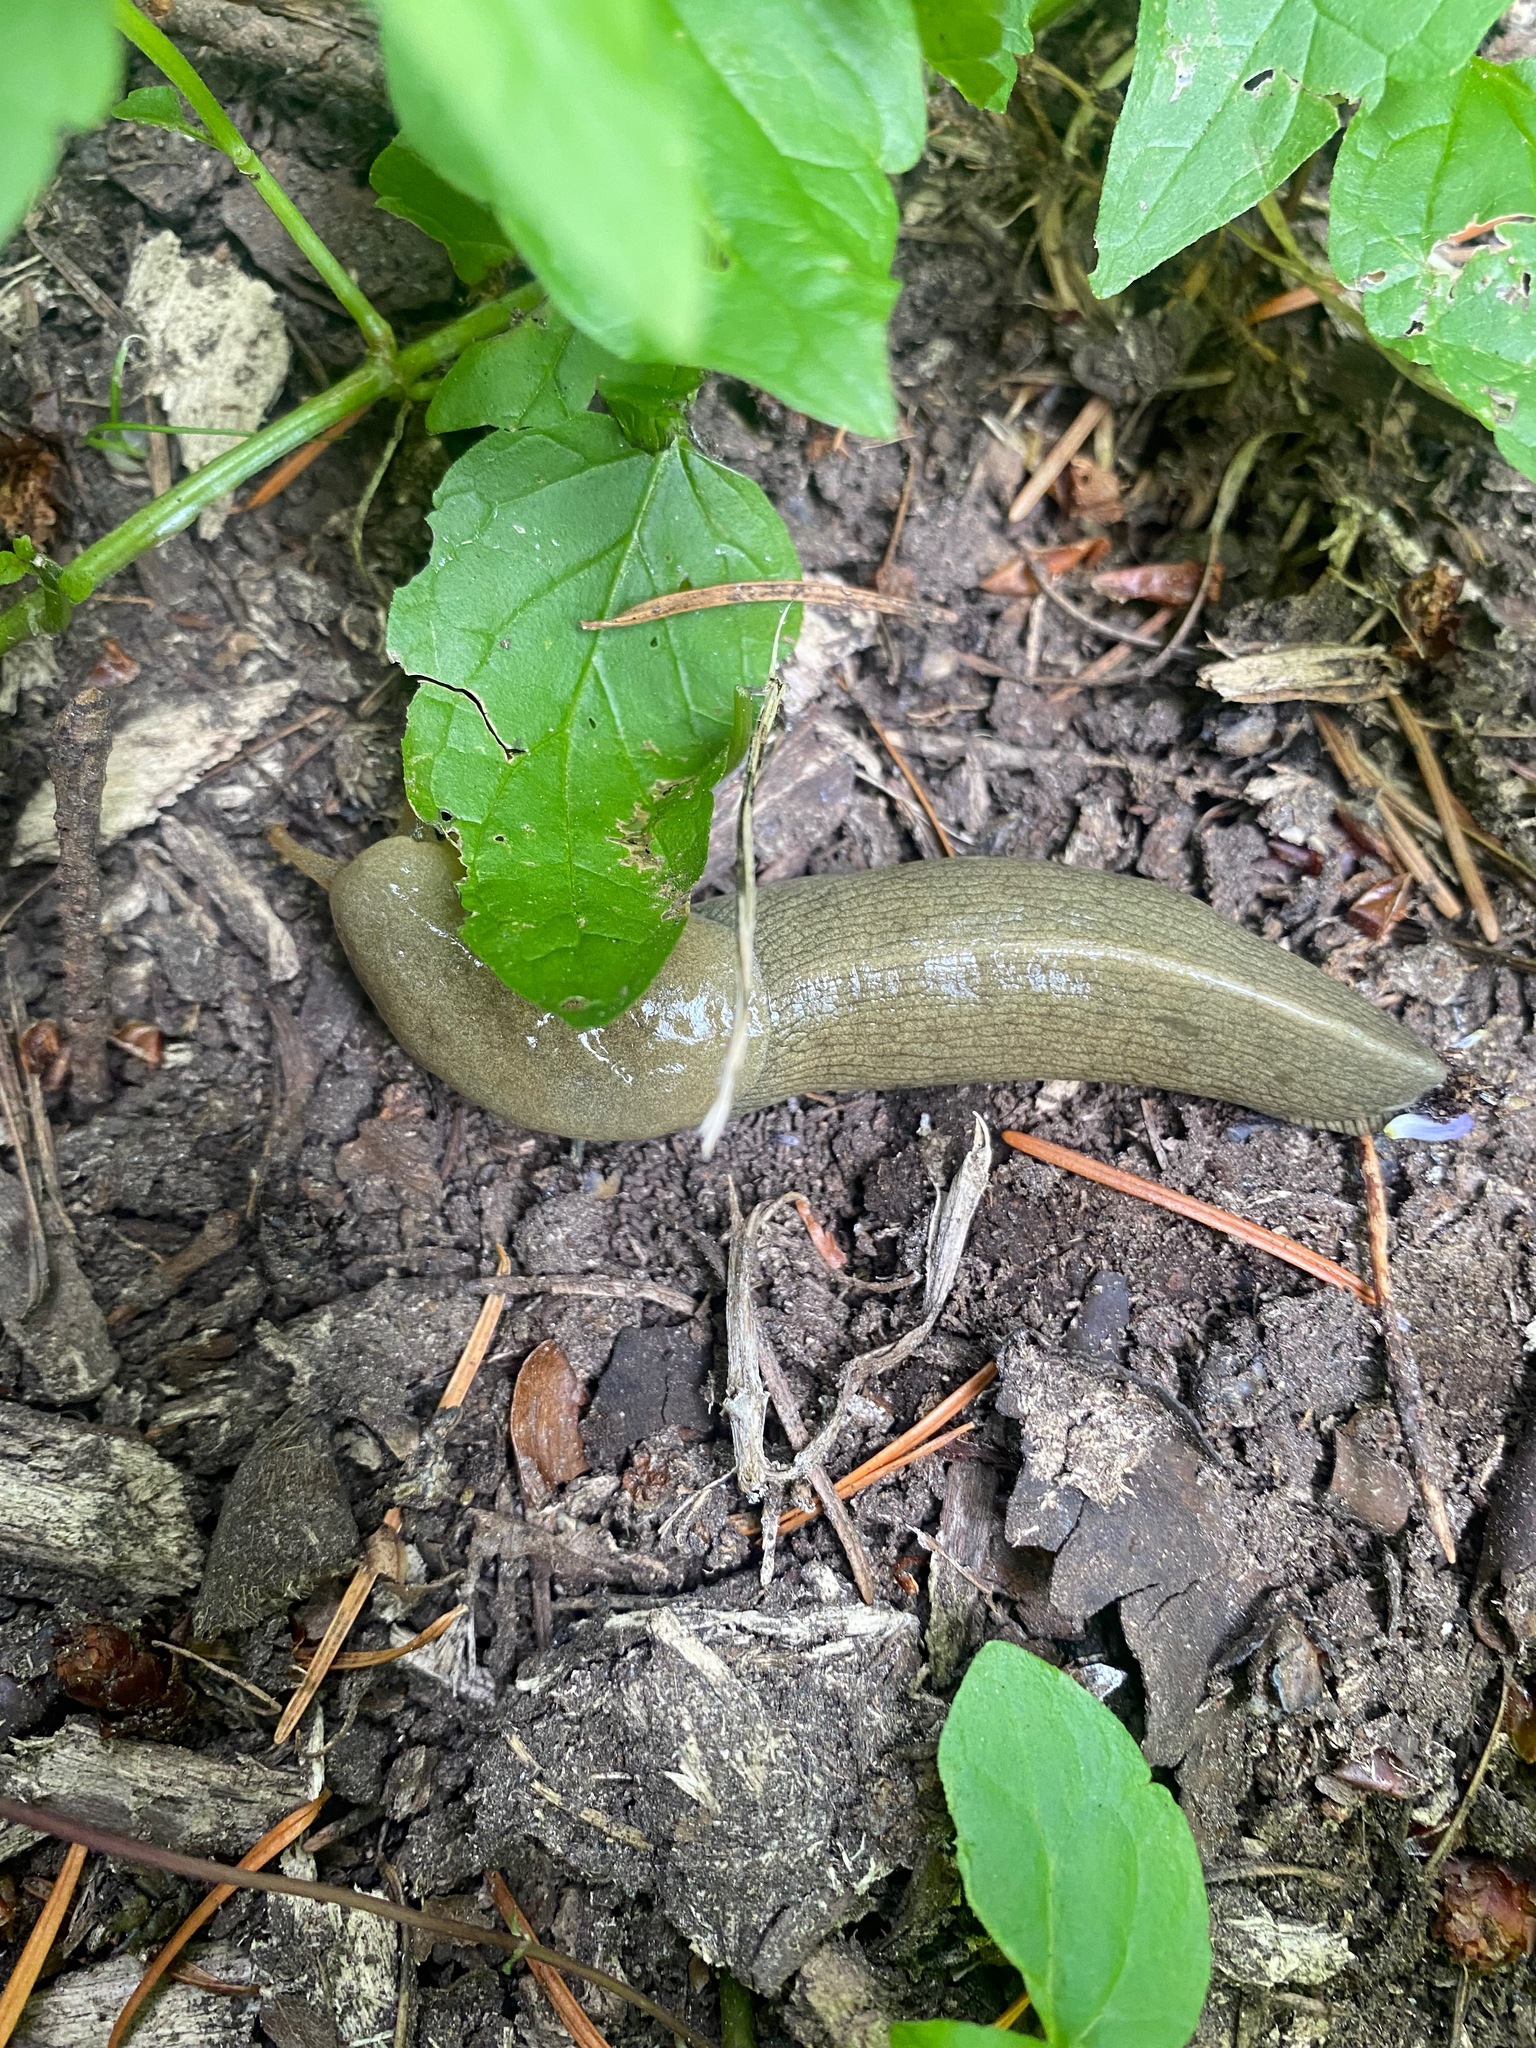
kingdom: Animalia
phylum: Mollusca
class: Gastropoda
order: Stylommatophora
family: Ariolimacidae
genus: Ariolimax
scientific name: Ariolimax columbianus
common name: Pacific banana slug
